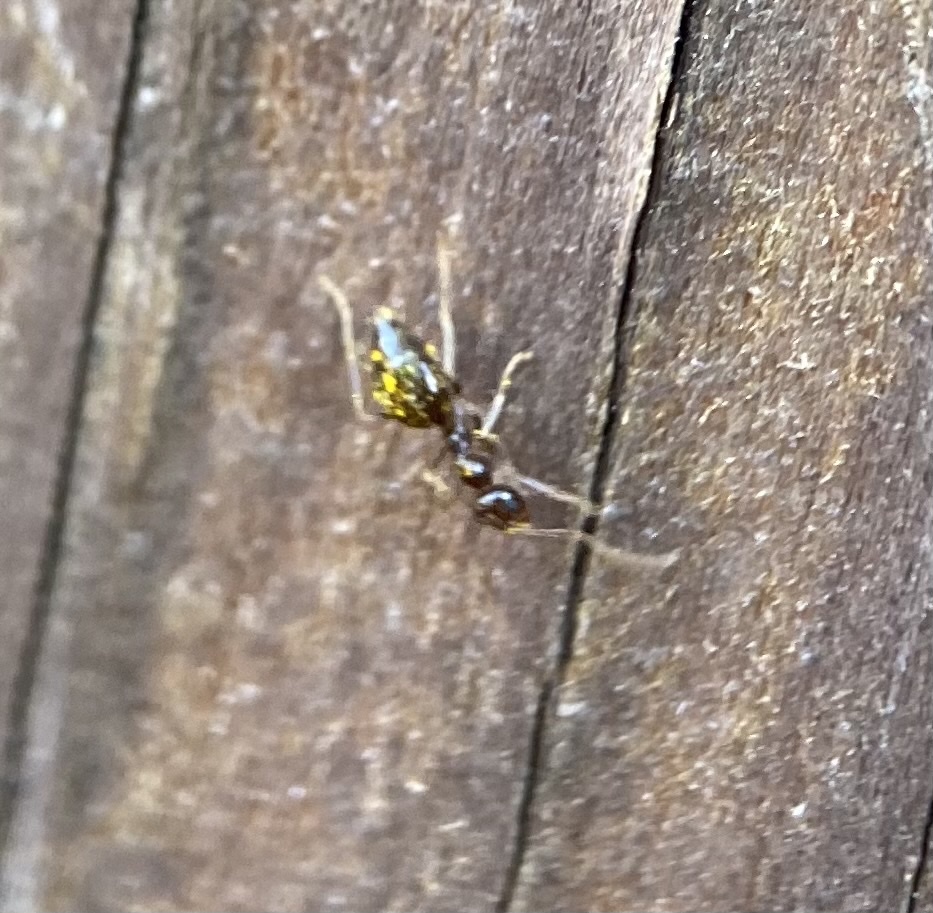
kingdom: Animalia
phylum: Arthropoda
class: Insecta
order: Hymenoptera
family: Formicidae
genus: Prenolepis
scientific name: Prenolepis imparis
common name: Small honey ant
